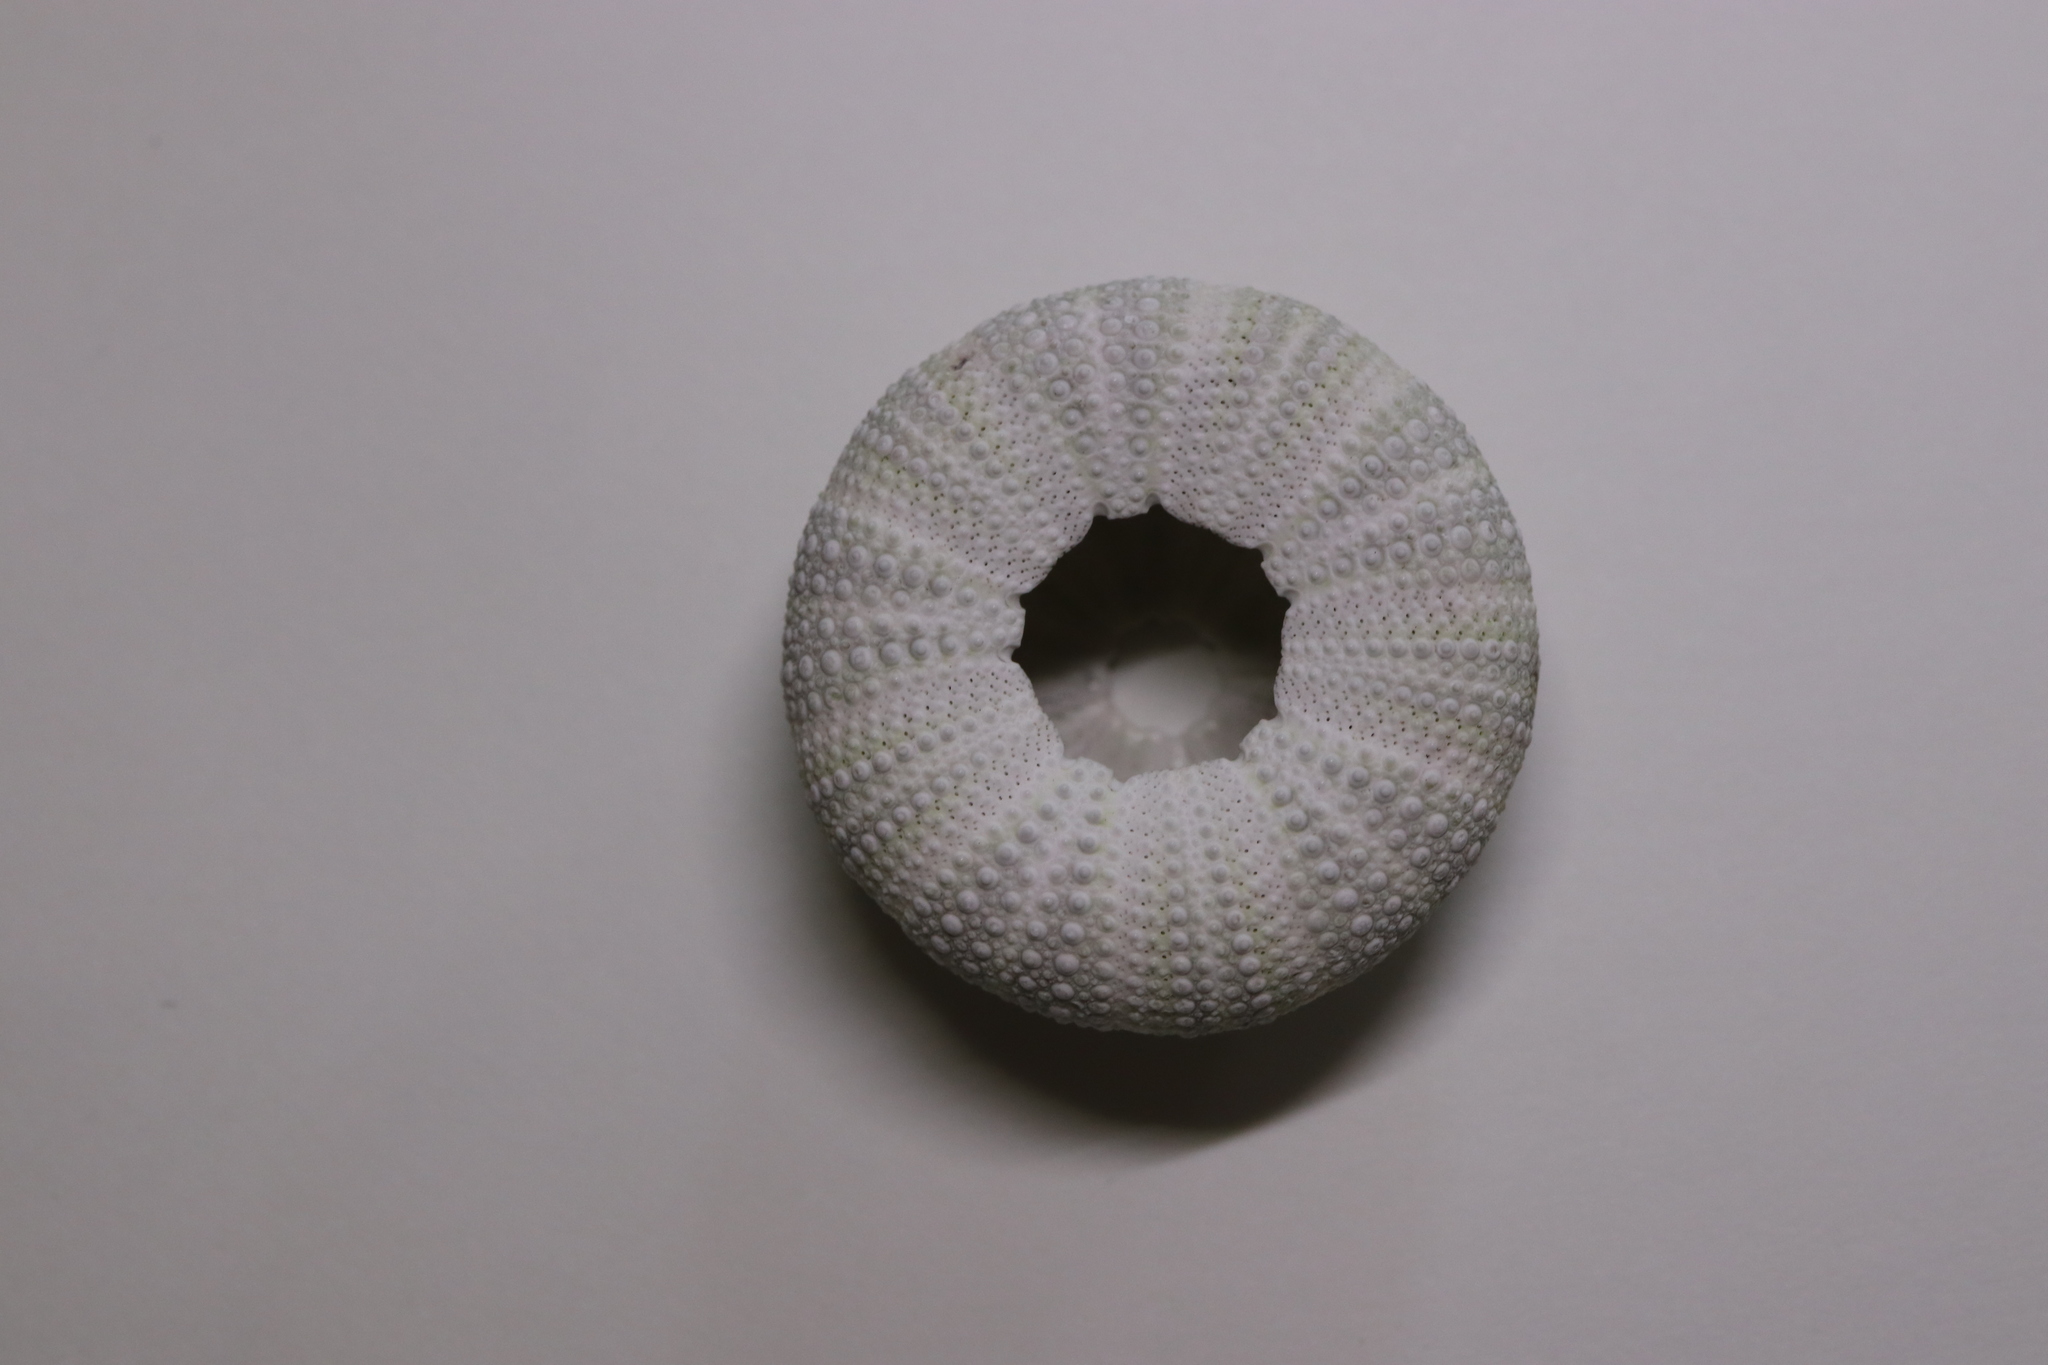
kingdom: Animalia
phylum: Echinodermata
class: Echinoidea
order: Camarodonta
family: Strongylocentrotidae
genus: Hemicentrotus
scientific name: Hemicentrotus pulcherrimus
